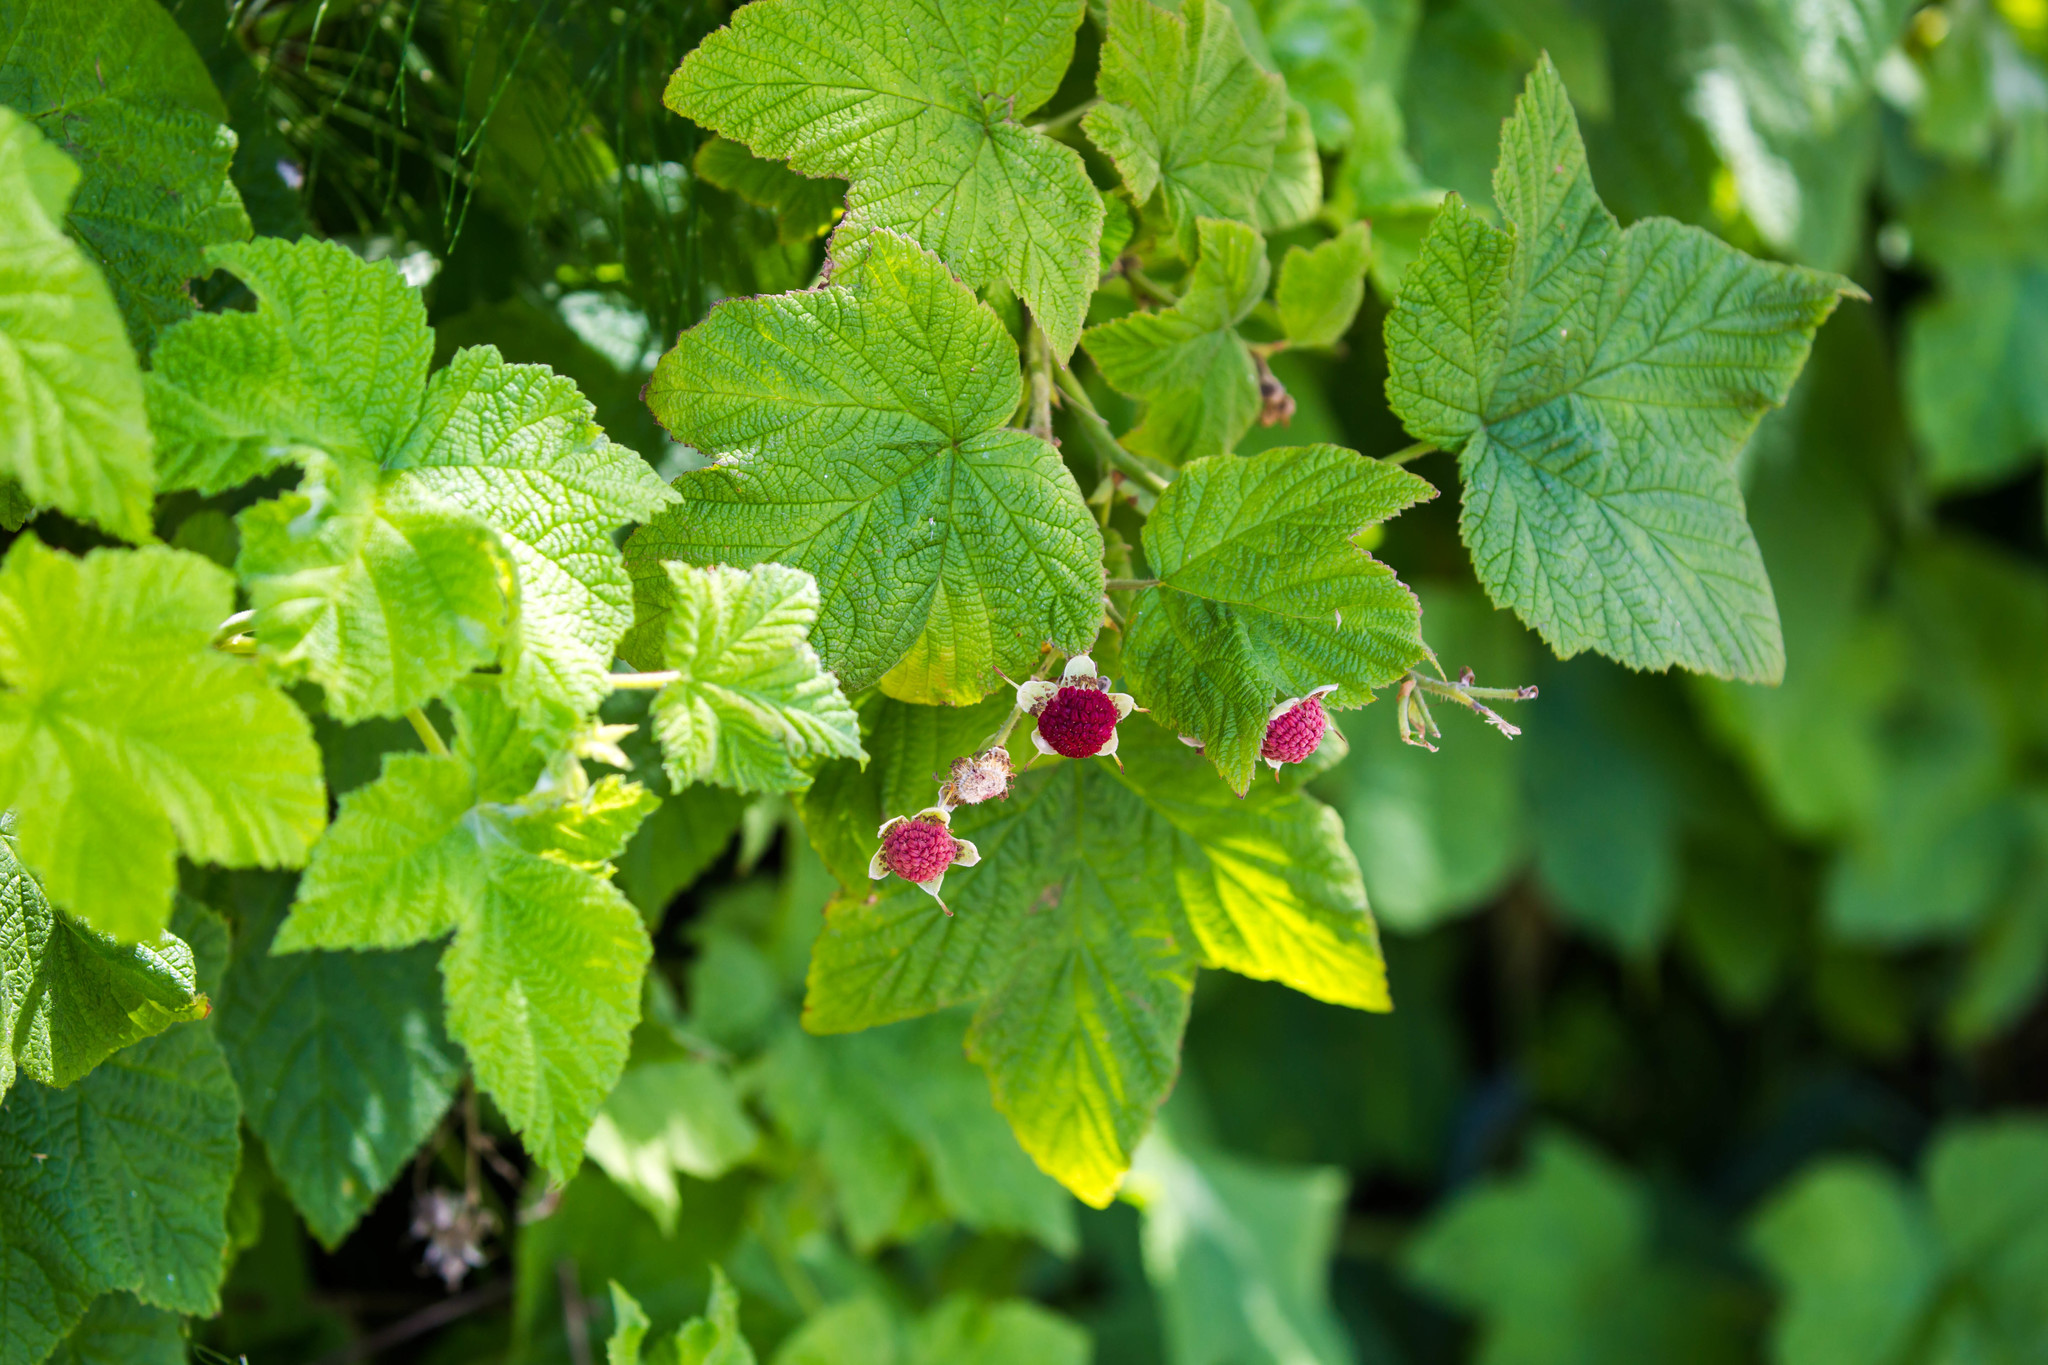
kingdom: Plantae
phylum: Tracheophyta
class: Magnoliopsida
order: Rosales
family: Rosaceae
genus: Rubus
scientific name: Rubus parviflorus
